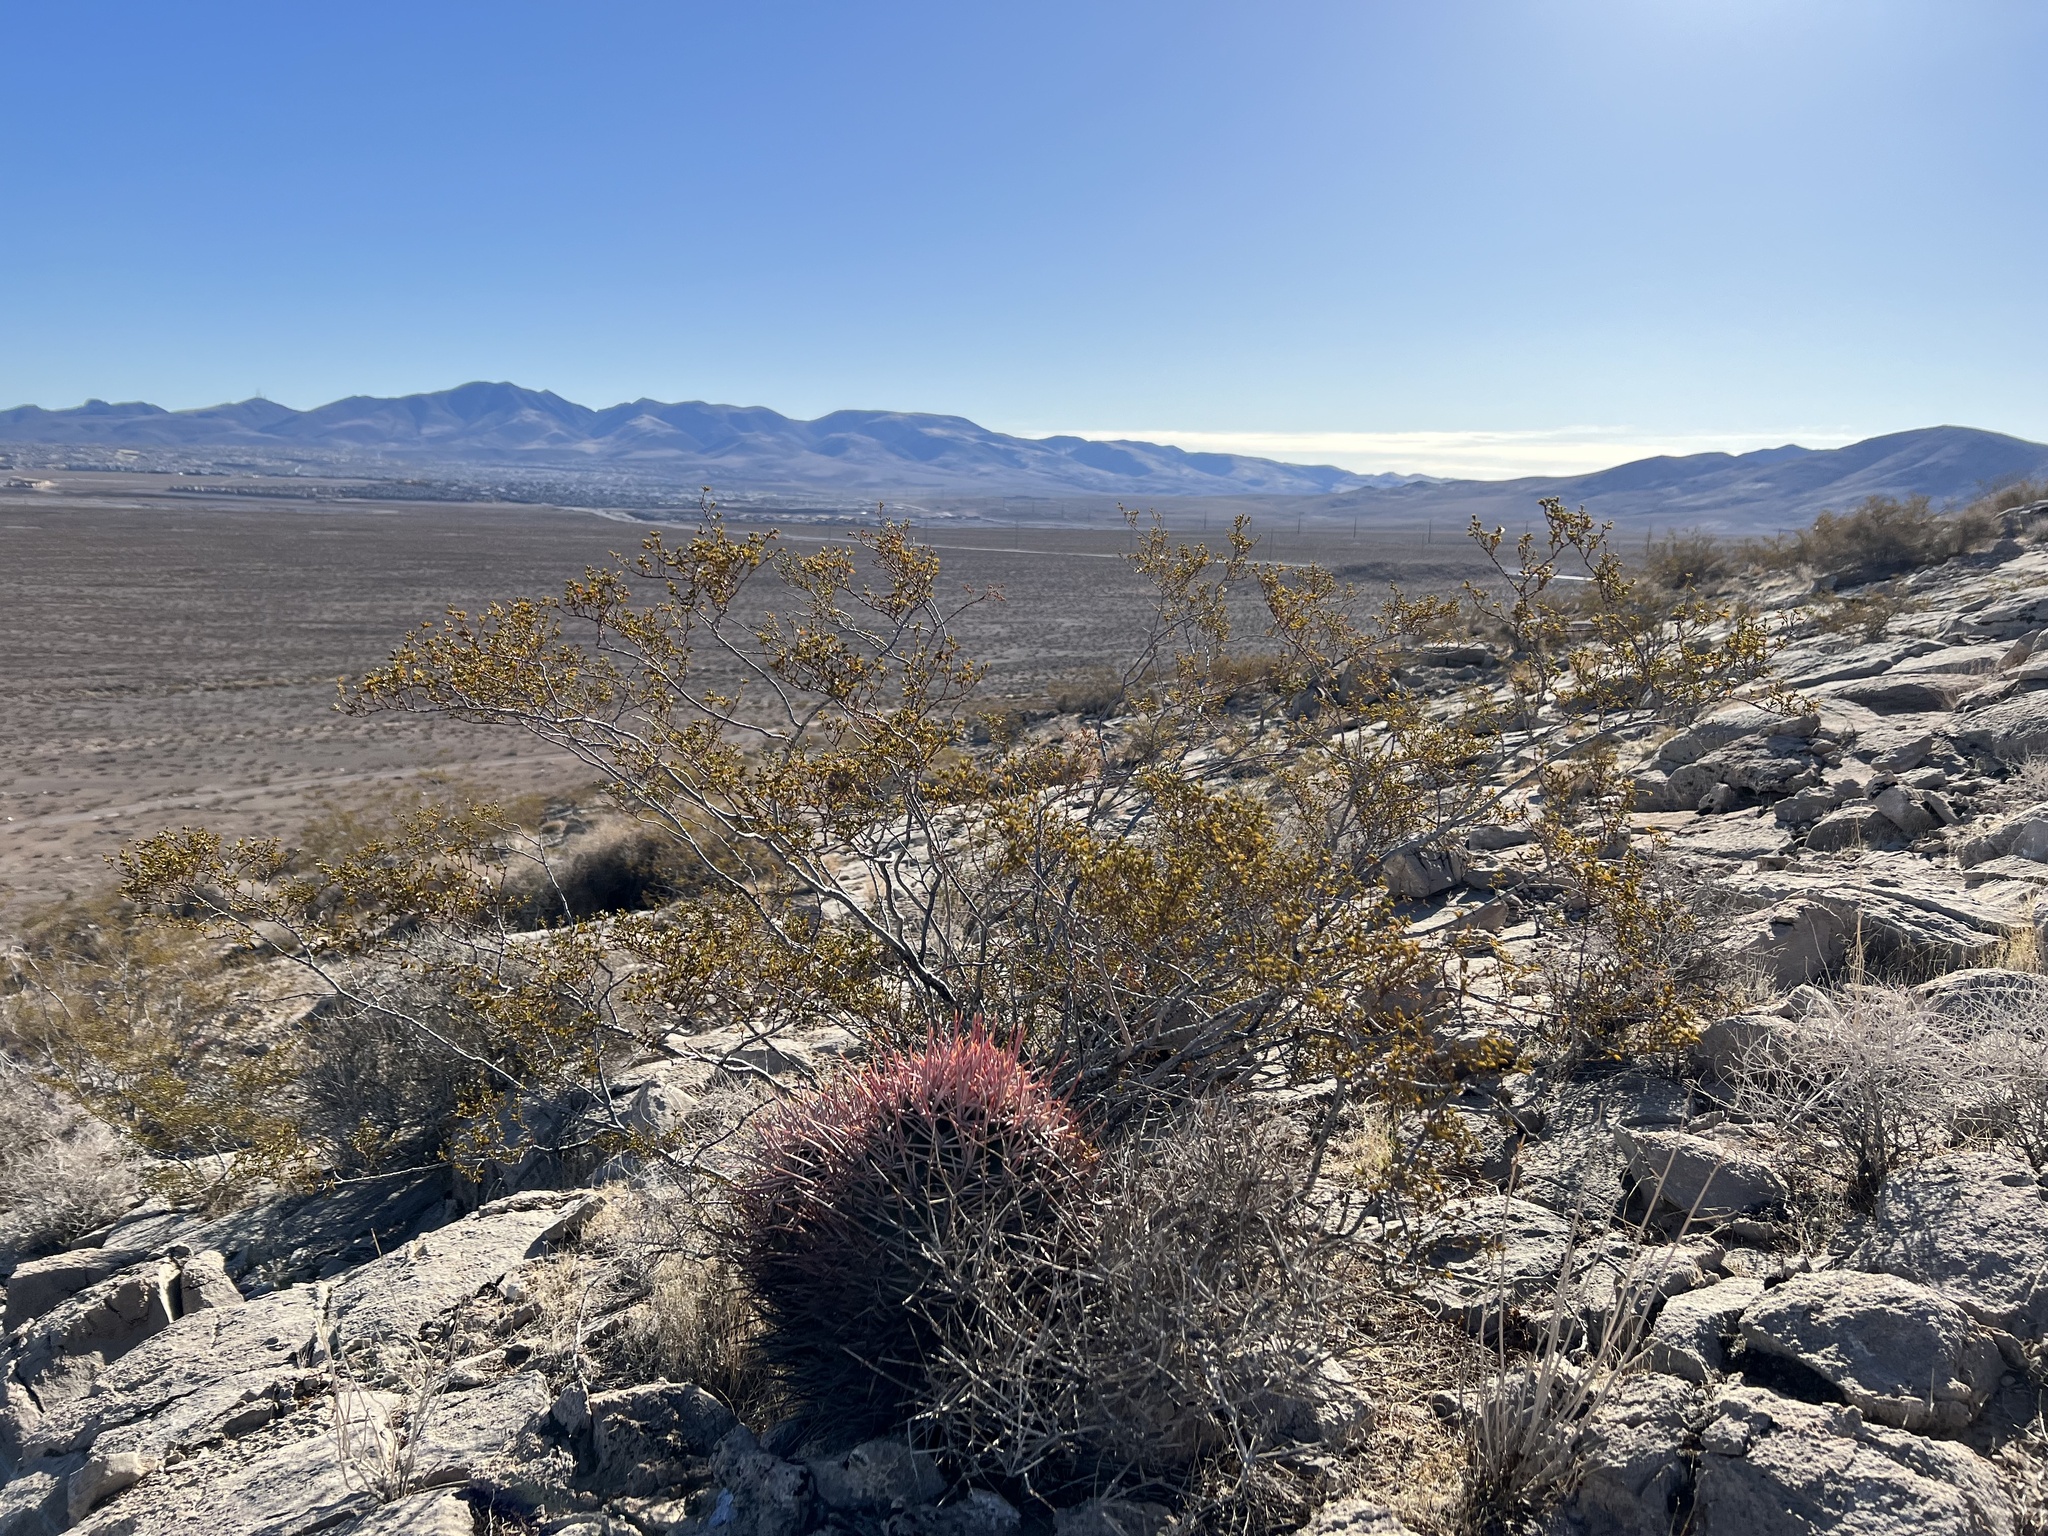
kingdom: Plantae
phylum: Tracheophyta
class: Magnoliopsida
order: Zygophyllales
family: Zygophyllaceae
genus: Larrea
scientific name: Larrea tridentata
